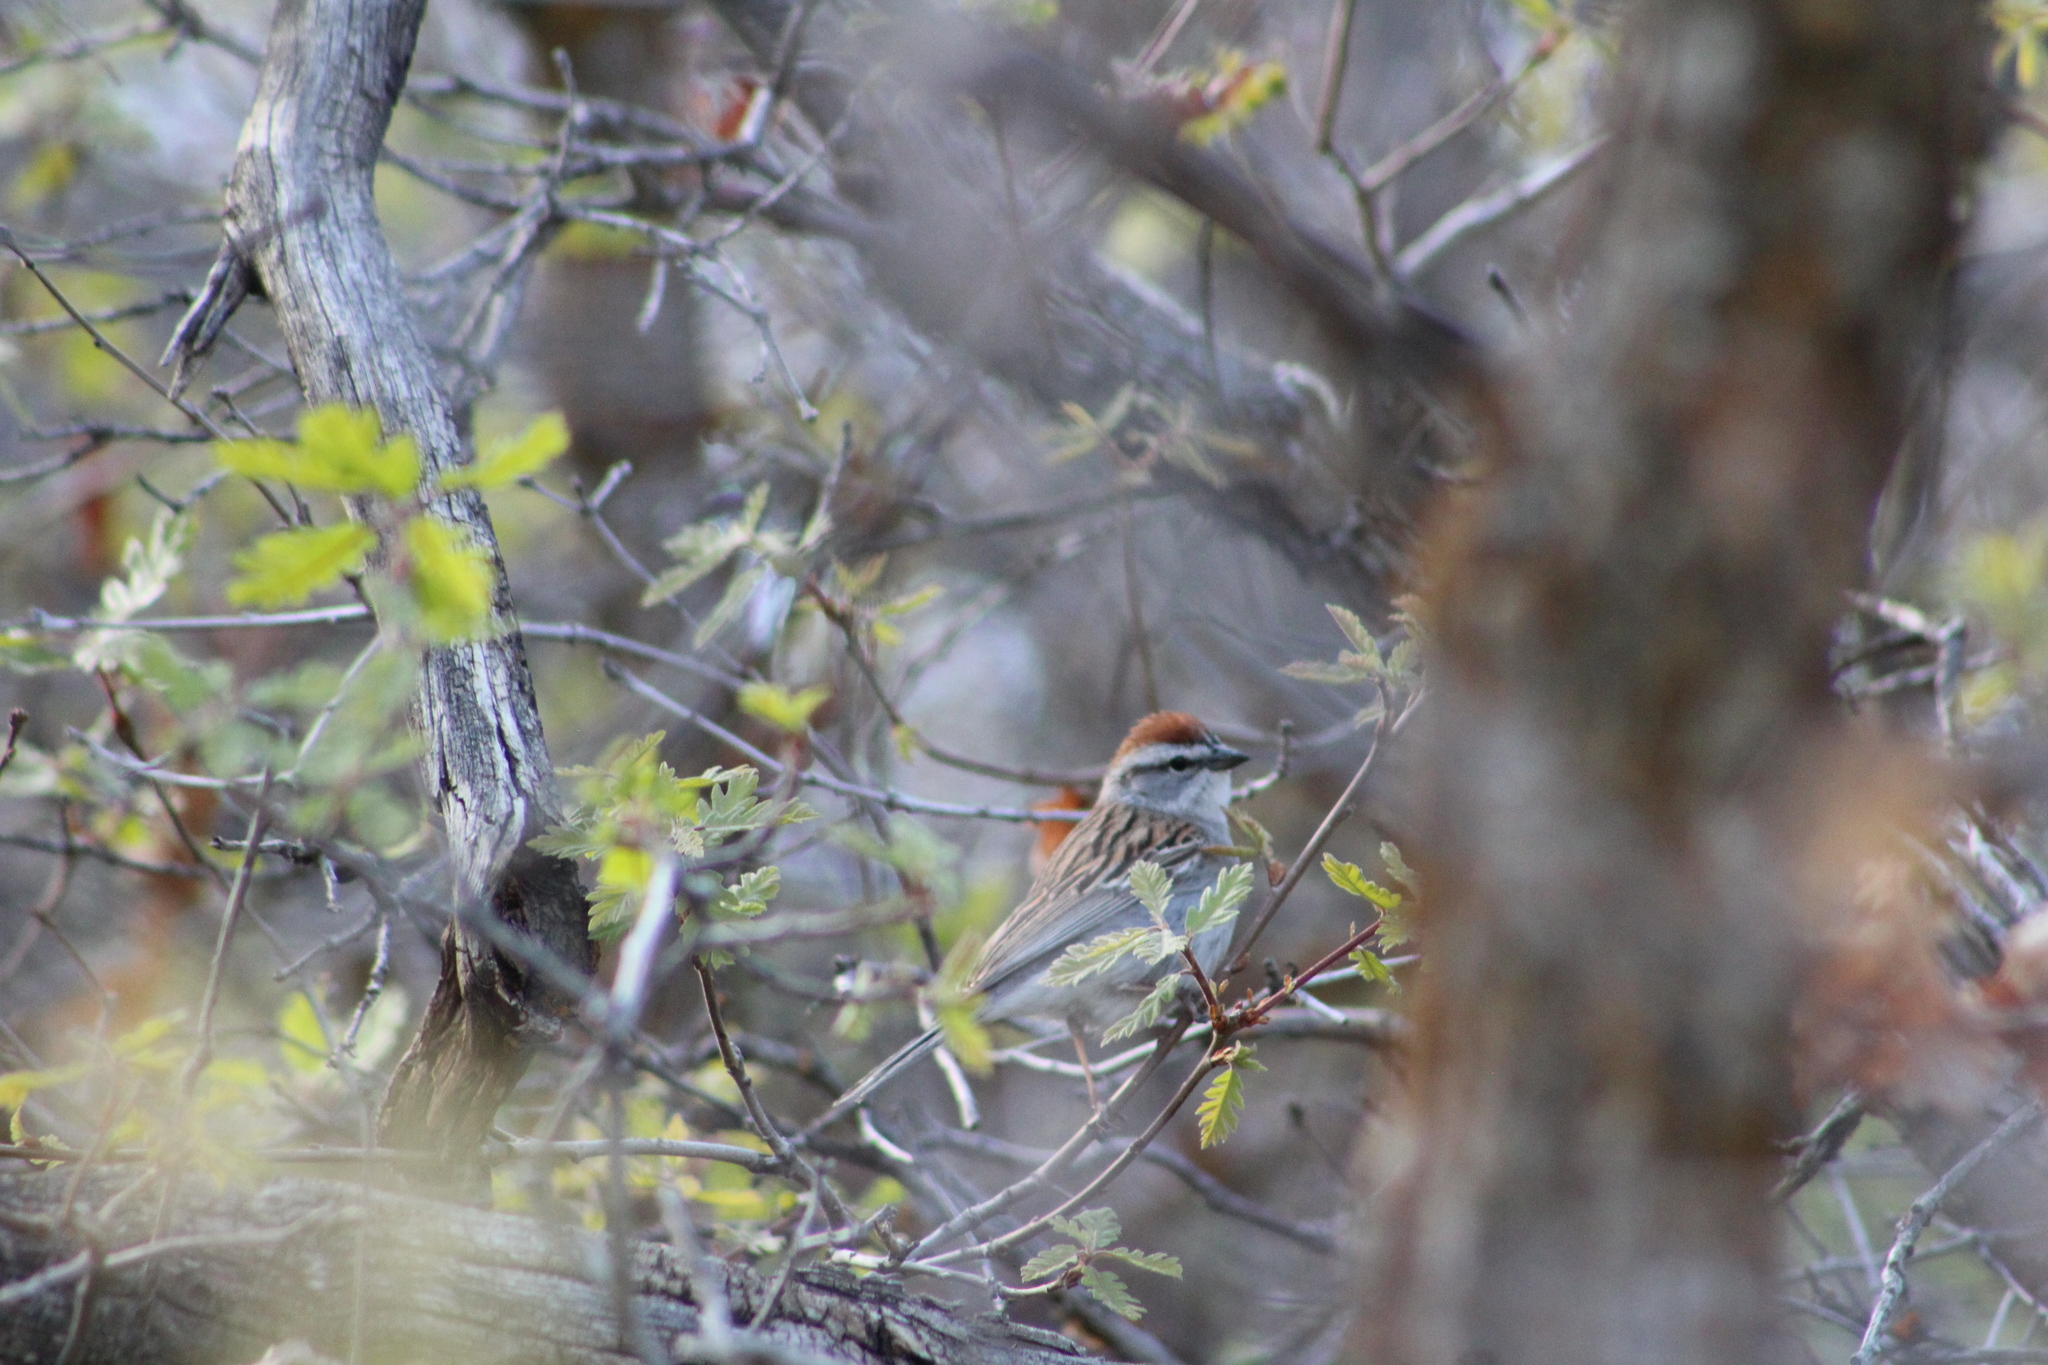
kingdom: Animalia
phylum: Chordata
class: Aves
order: Passeriformes
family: Passerellidae
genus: Spizella
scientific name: Spizella passerina
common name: Chipping sparrow
